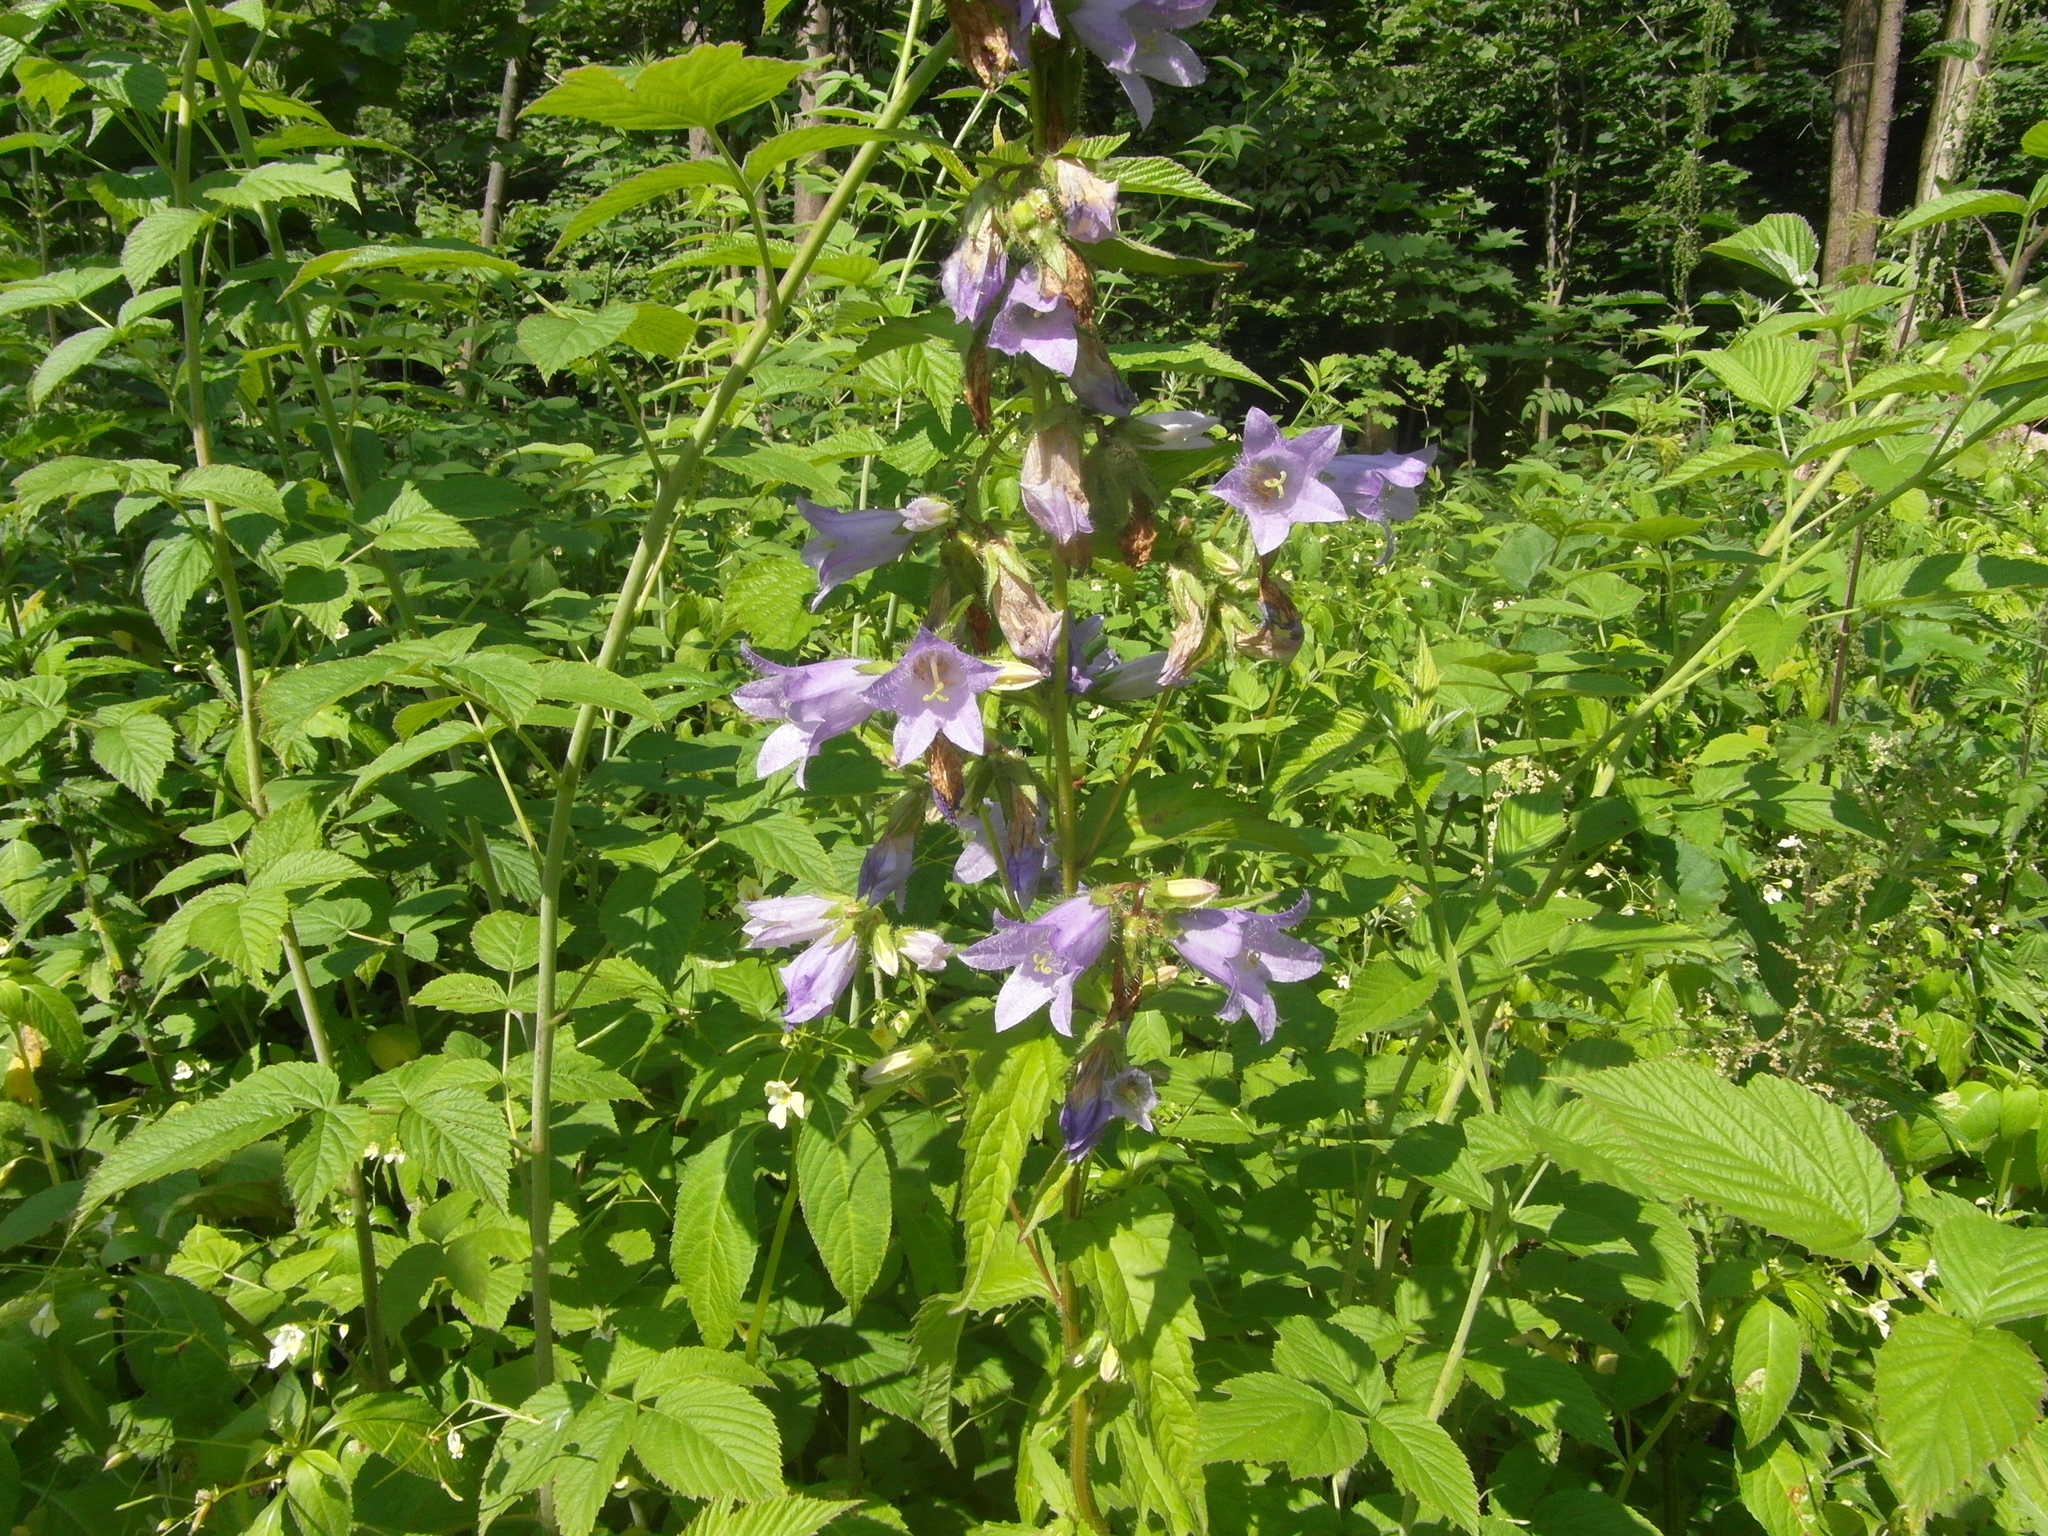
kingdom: Plantae
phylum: Tracheophyta
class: Magnoliopsida
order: Asterales
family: Campanulaceae
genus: Campanula
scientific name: Campanula trachelium
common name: Nettle-leaved bellflower
